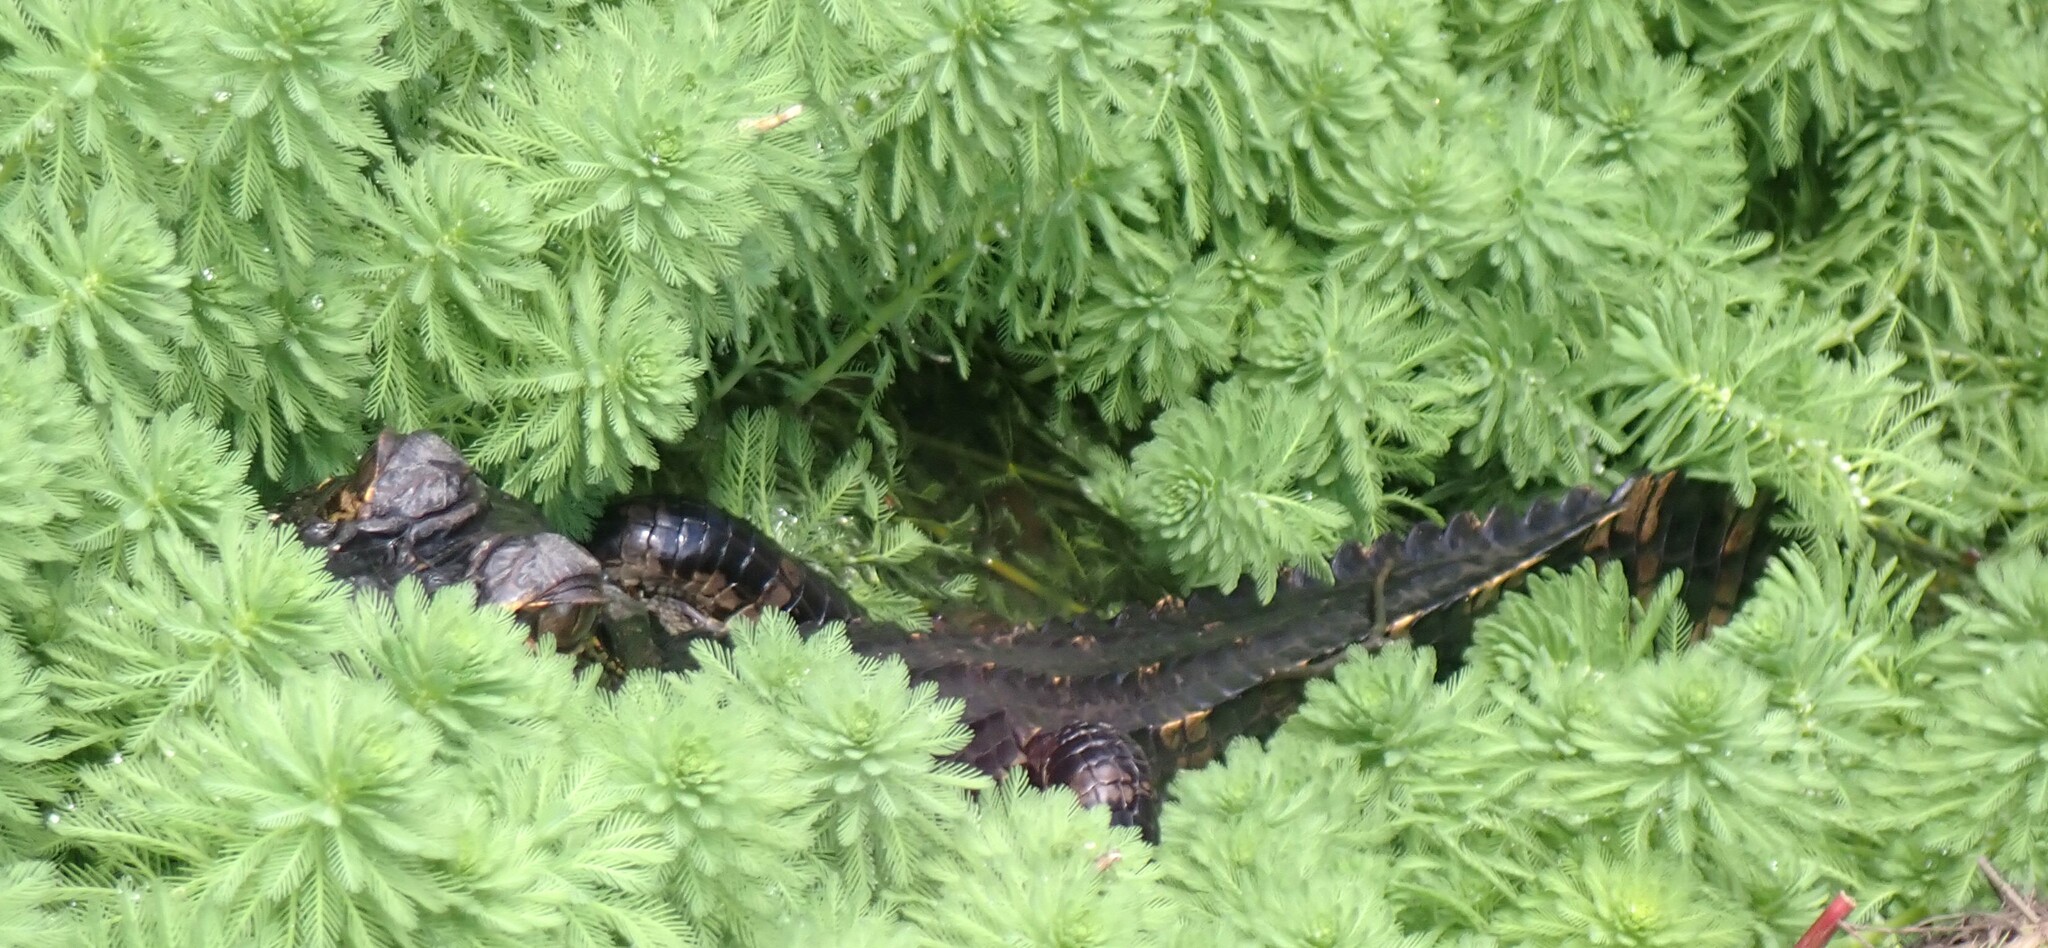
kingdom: Animalia
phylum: Chordata
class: Crocodylia
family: Alligatoridae
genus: Alligator
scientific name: Alligator mississippiensis
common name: American alligator
